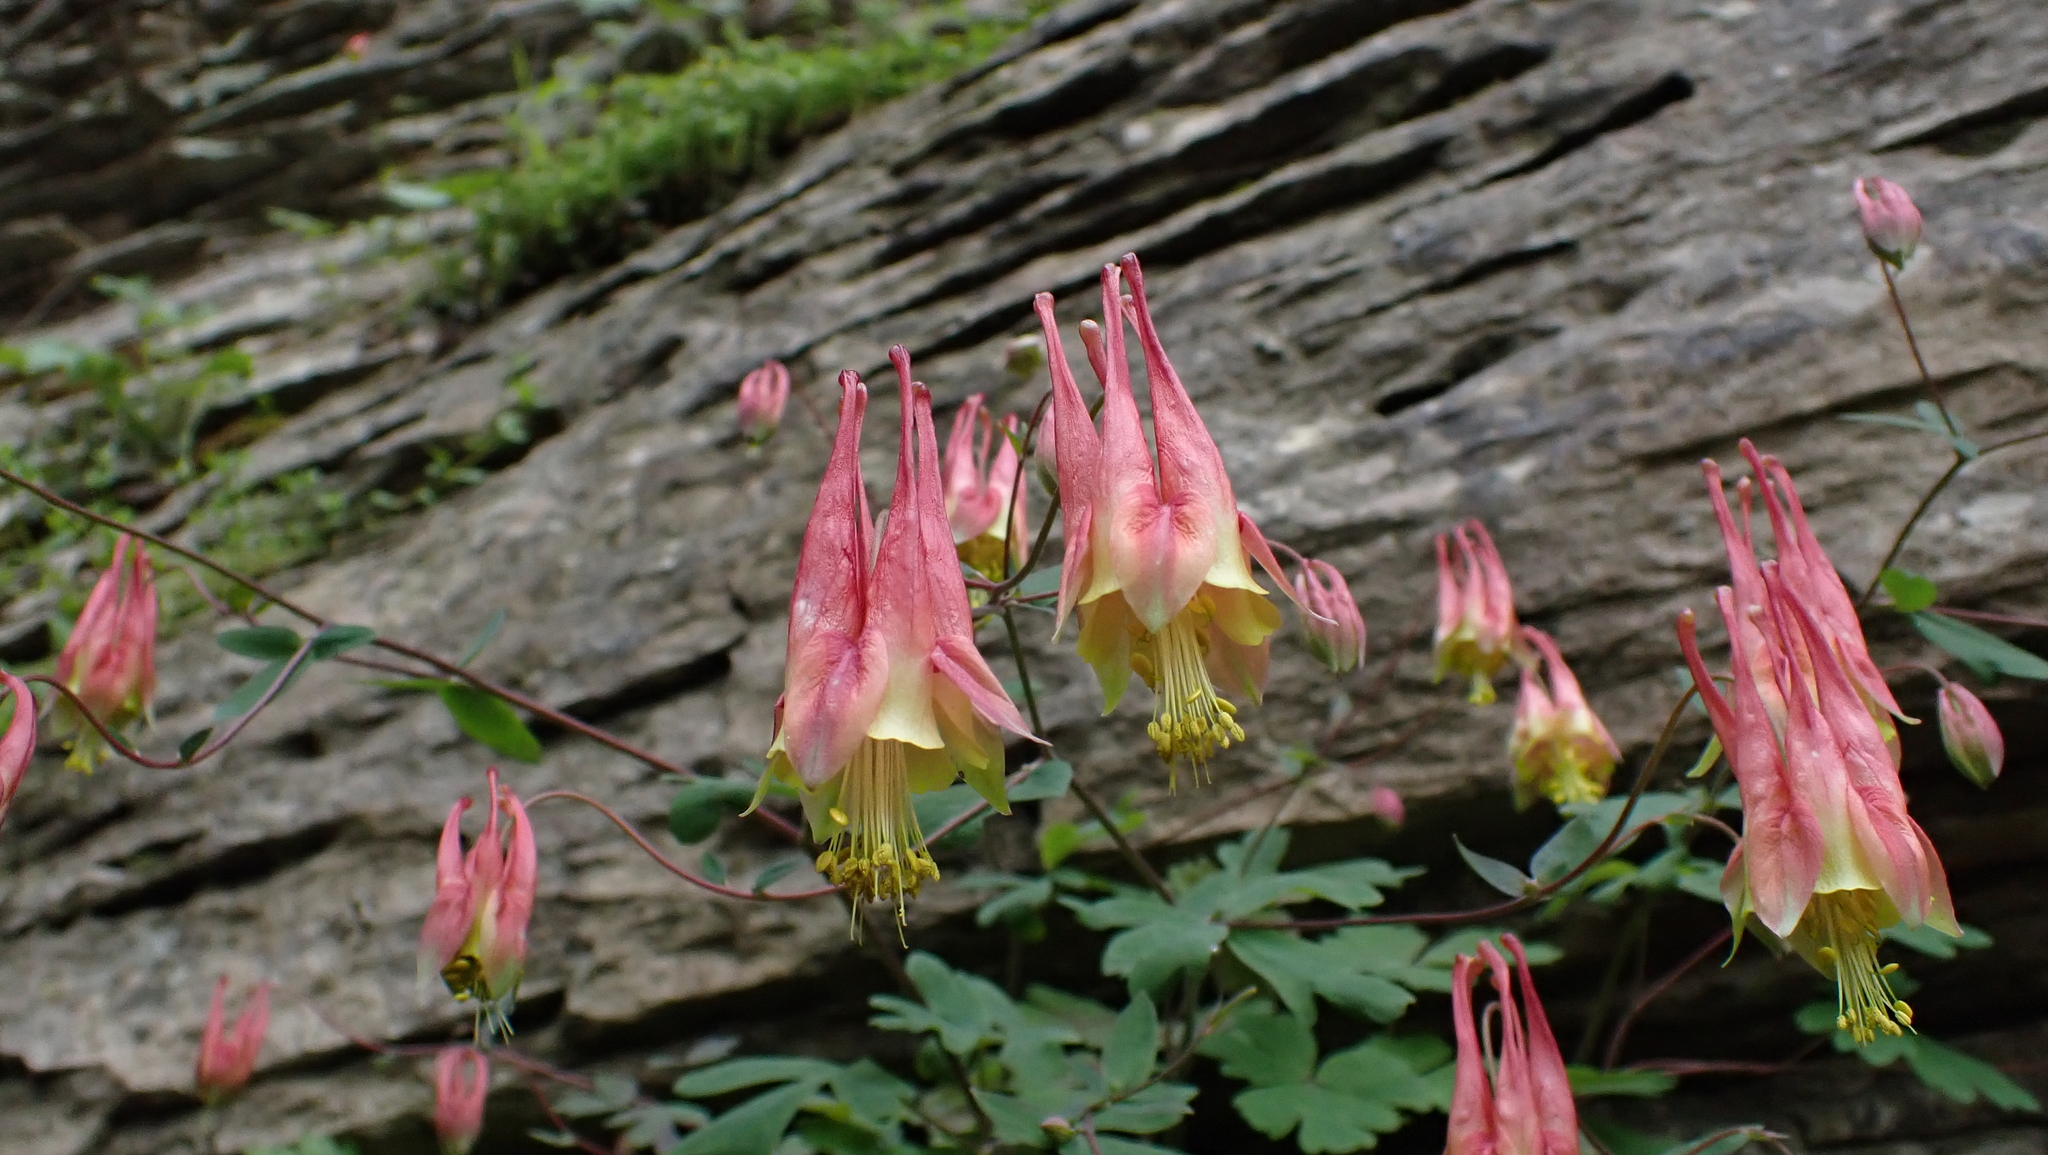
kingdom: Plantae
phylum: Tracheophyta
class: Magnoliopsida
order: Ranunculales
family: Ranunculaceae
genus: Aquilegia
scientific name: Aquilegia canadensis
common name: American columbine
